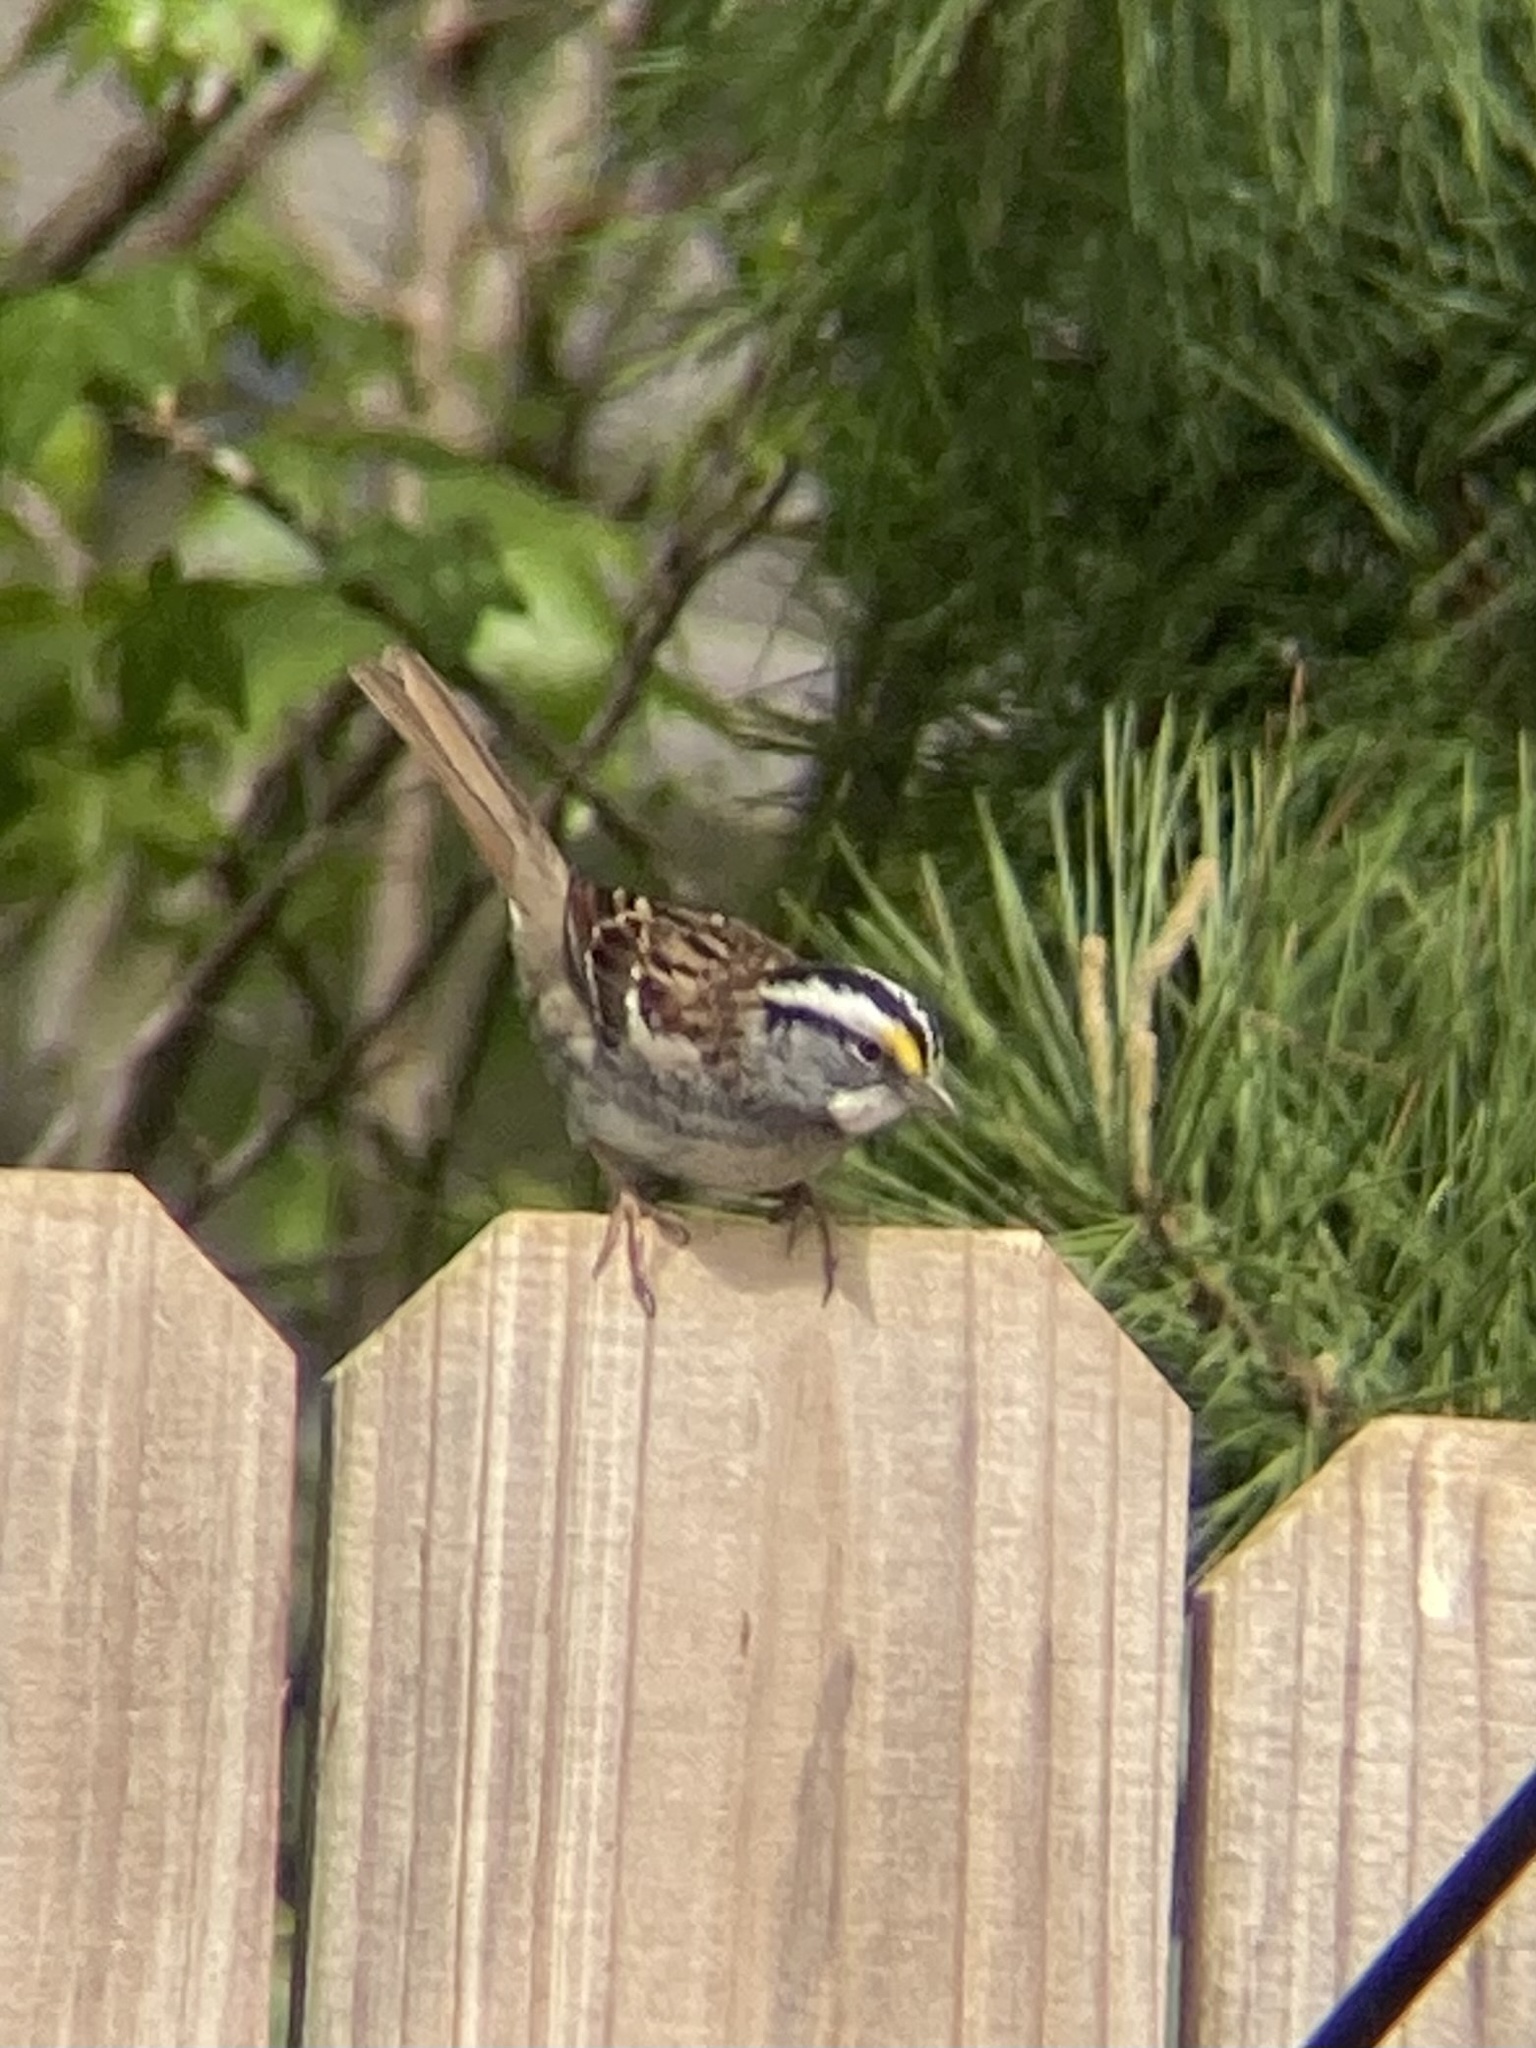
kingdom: Animalia
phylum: Chordata
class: Aves
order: Passeriformes
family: Passerellidae
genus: Zonotrichia
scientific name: Zonotrichia albicollis
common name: White-throated sparrow
